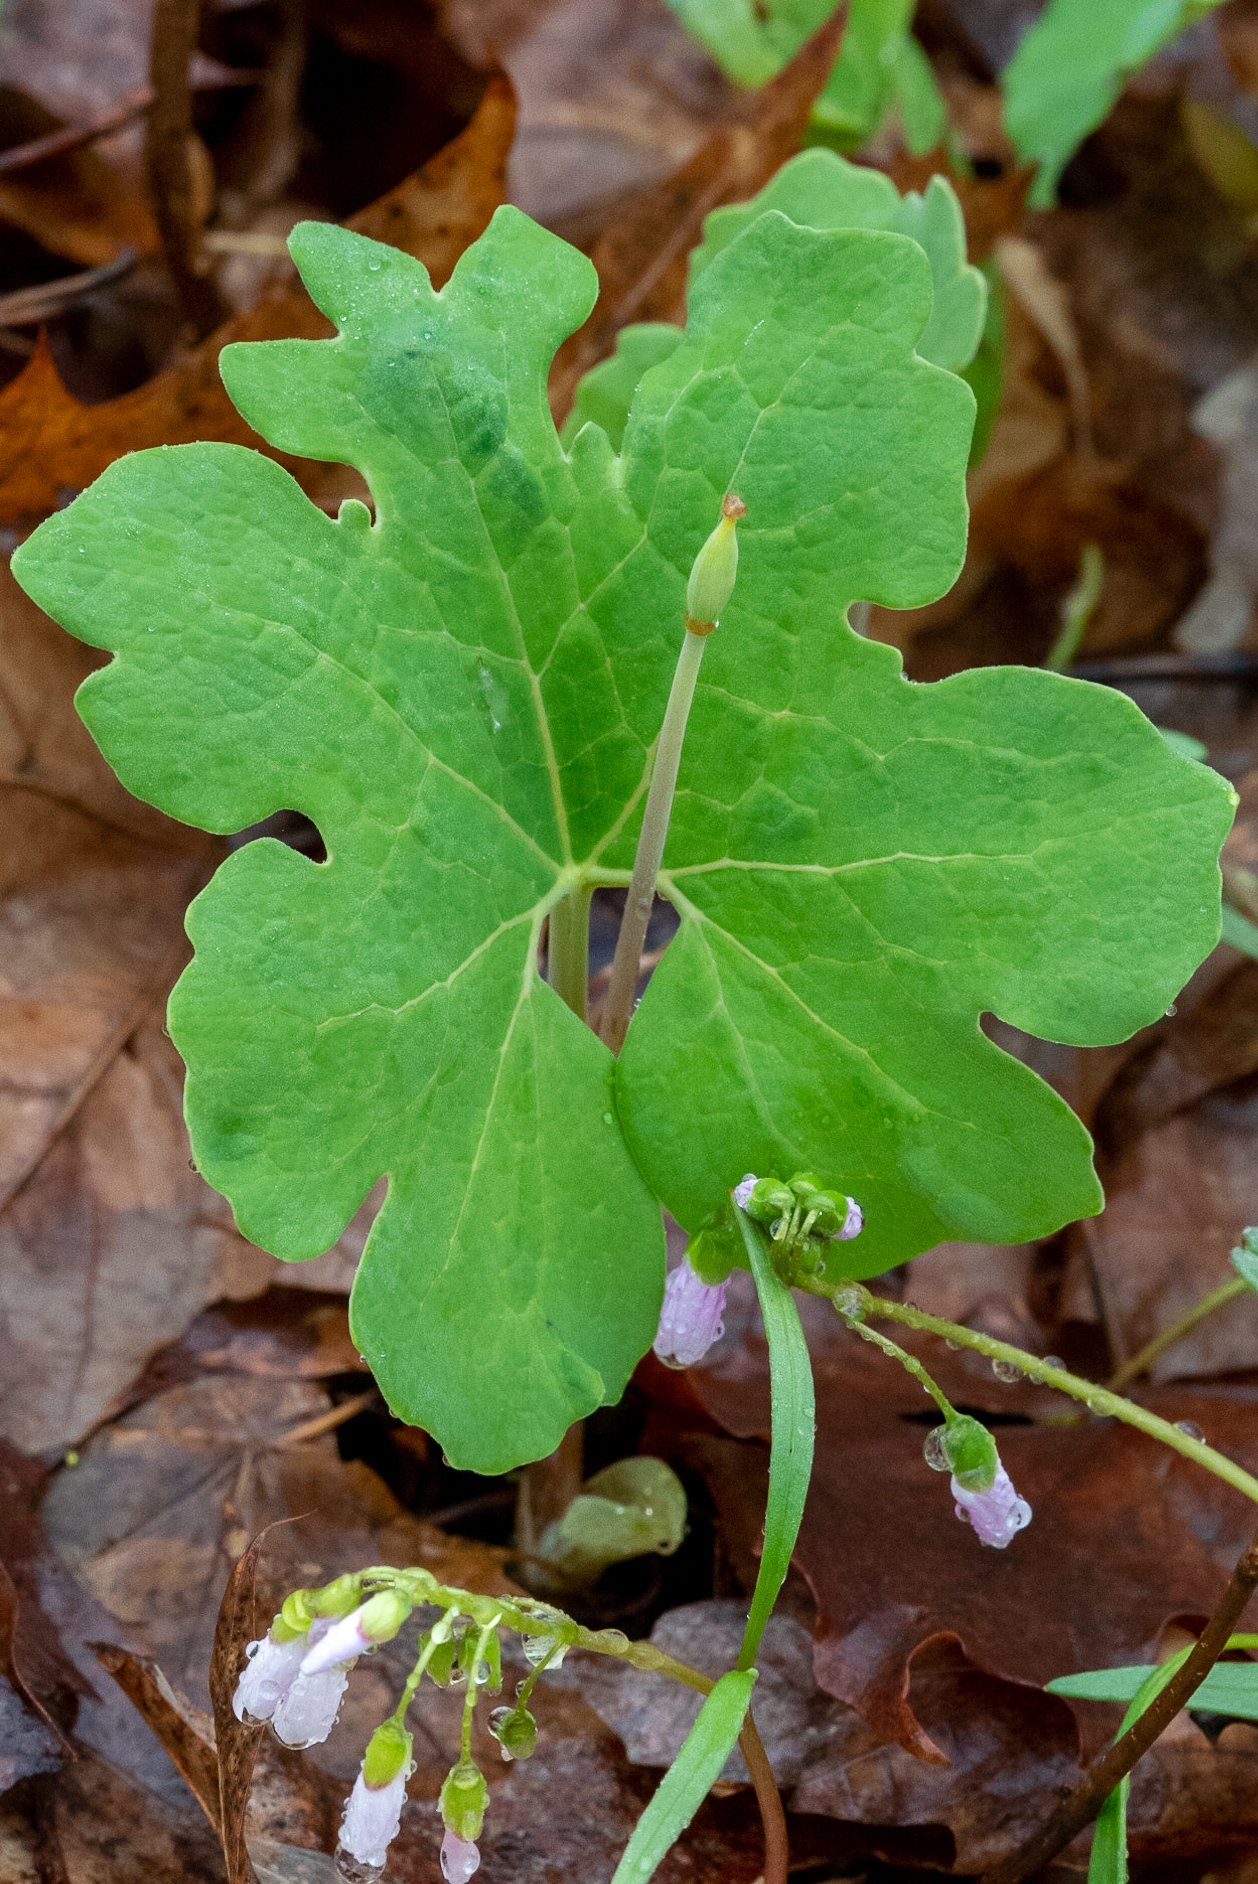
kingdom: Plantae
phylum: Tracheophyta
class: Magnoliopsida
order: Ranunculales
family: Papaveraceae
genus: Sanguinaria
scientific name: Sanguinaria canadensis
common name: Bloodroot
